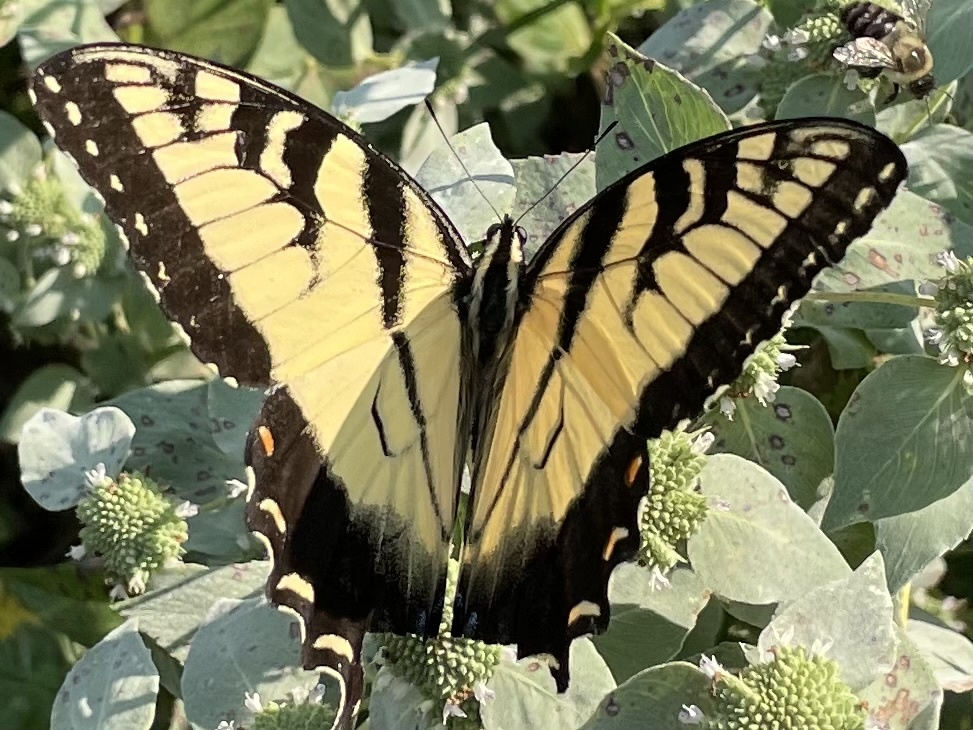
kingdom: Animalia
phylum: Arthropoda
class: Insecta
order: Lepidoptera
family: Papilionidae
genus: Papilio
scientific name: Papilio glaucus
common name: Tiger swallowtail
